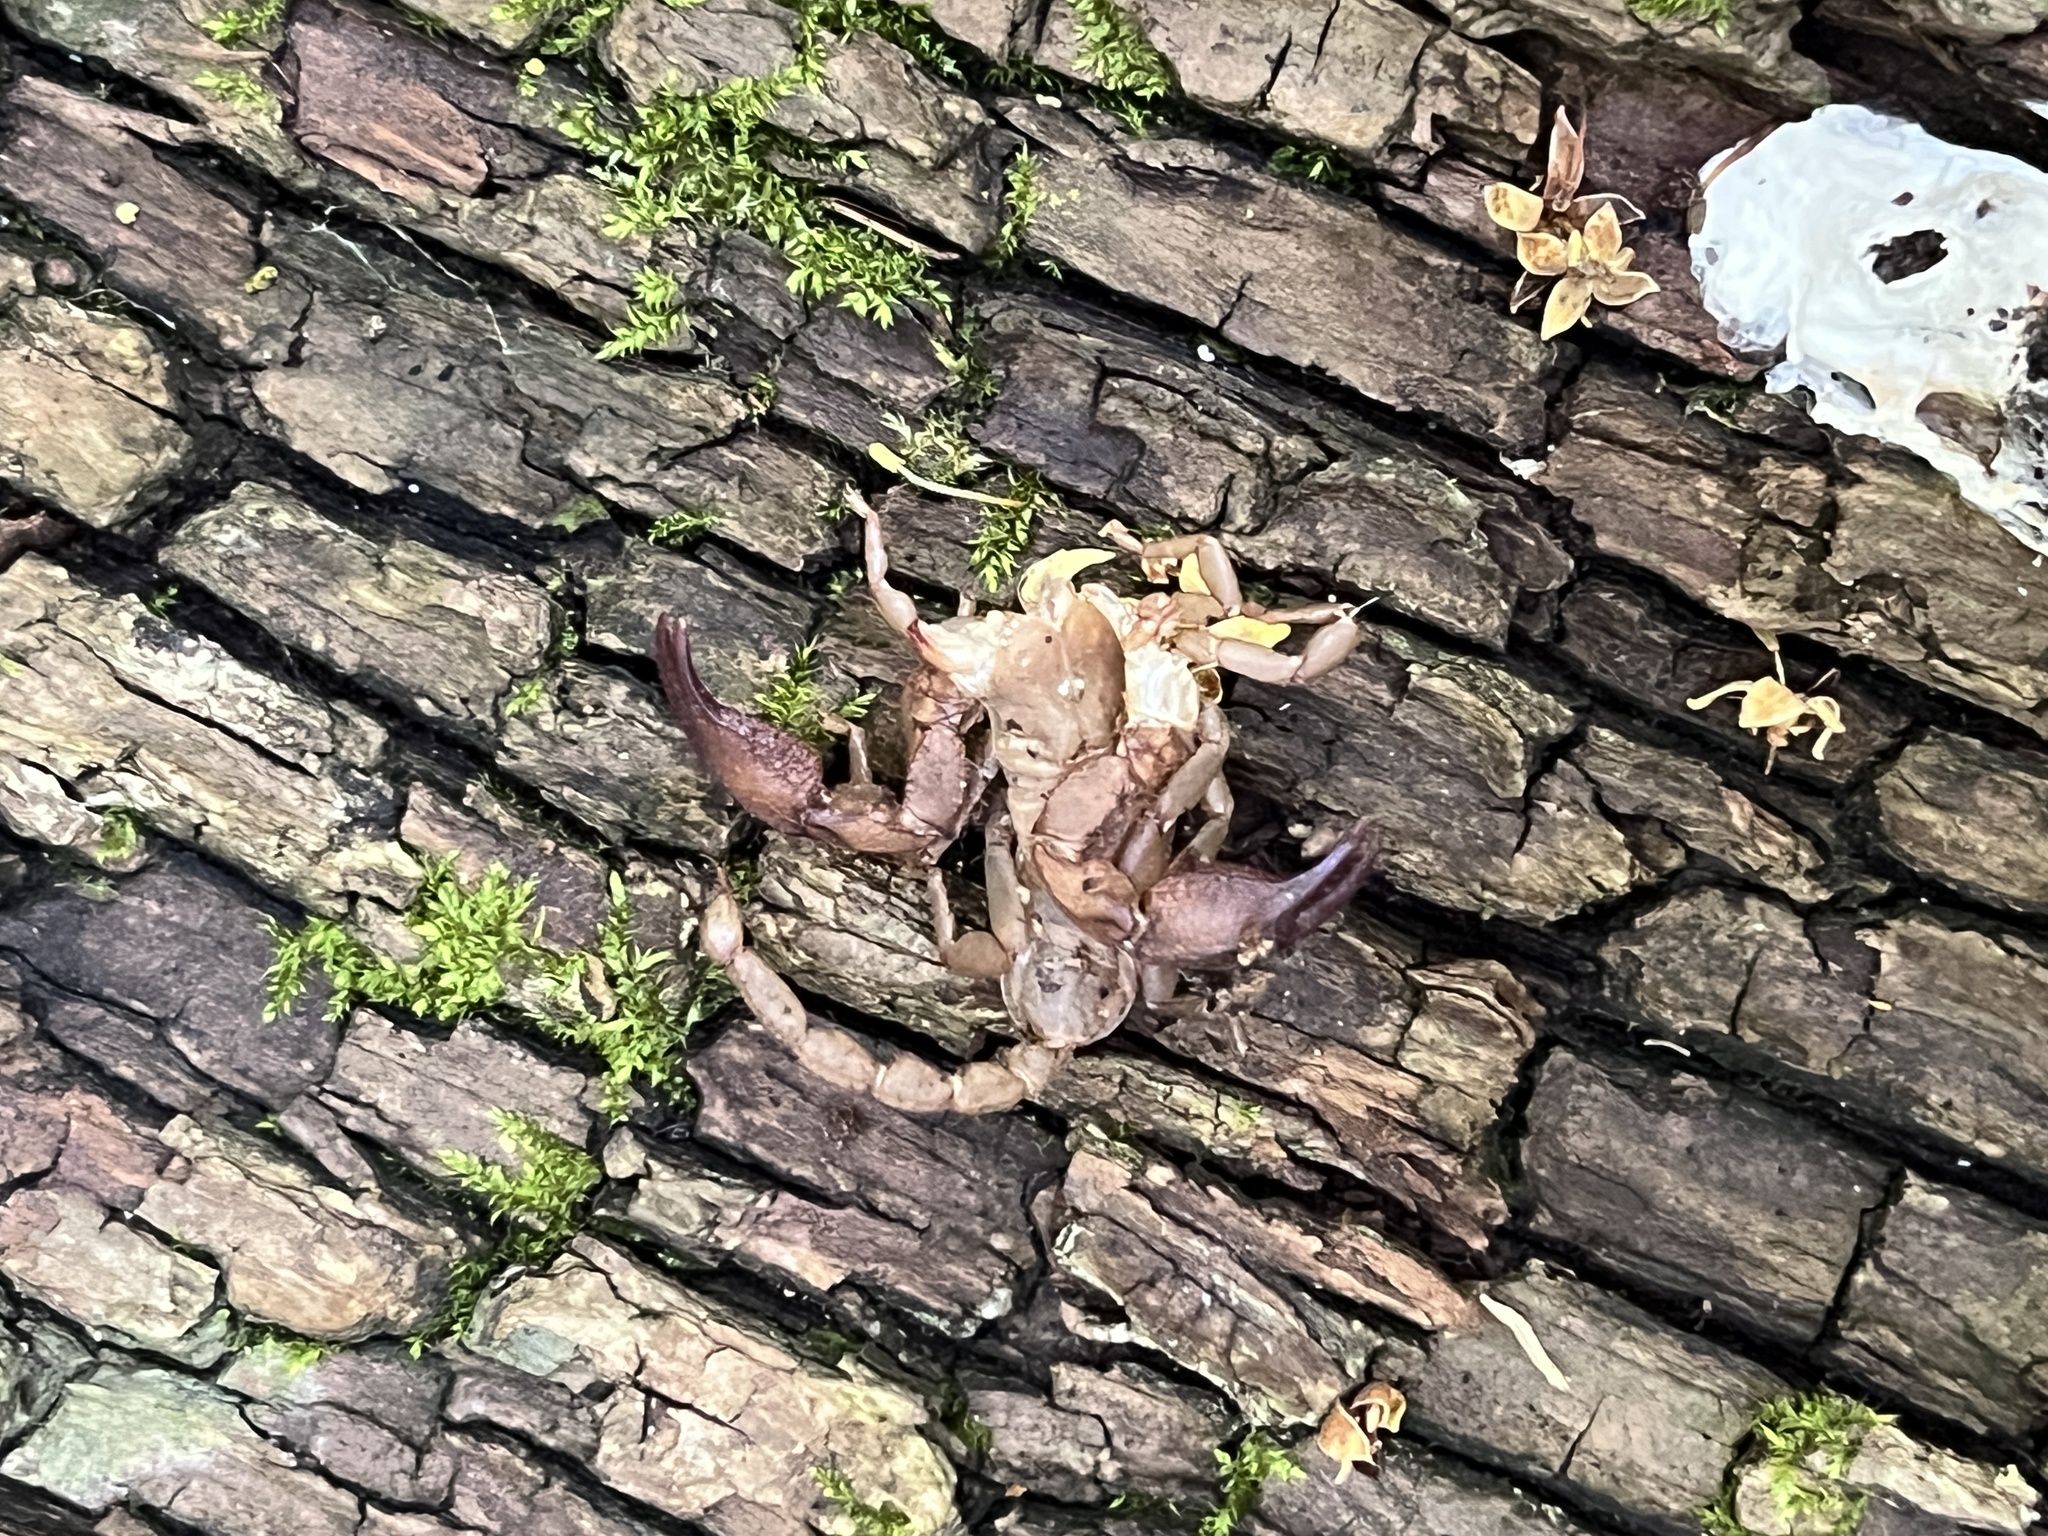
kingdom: Animalia
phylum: Arthropoda
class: Arachnida
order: Scorpiones
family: Hormuridae
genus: Opisthacanthus
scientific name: Opisthacanthus capensis
